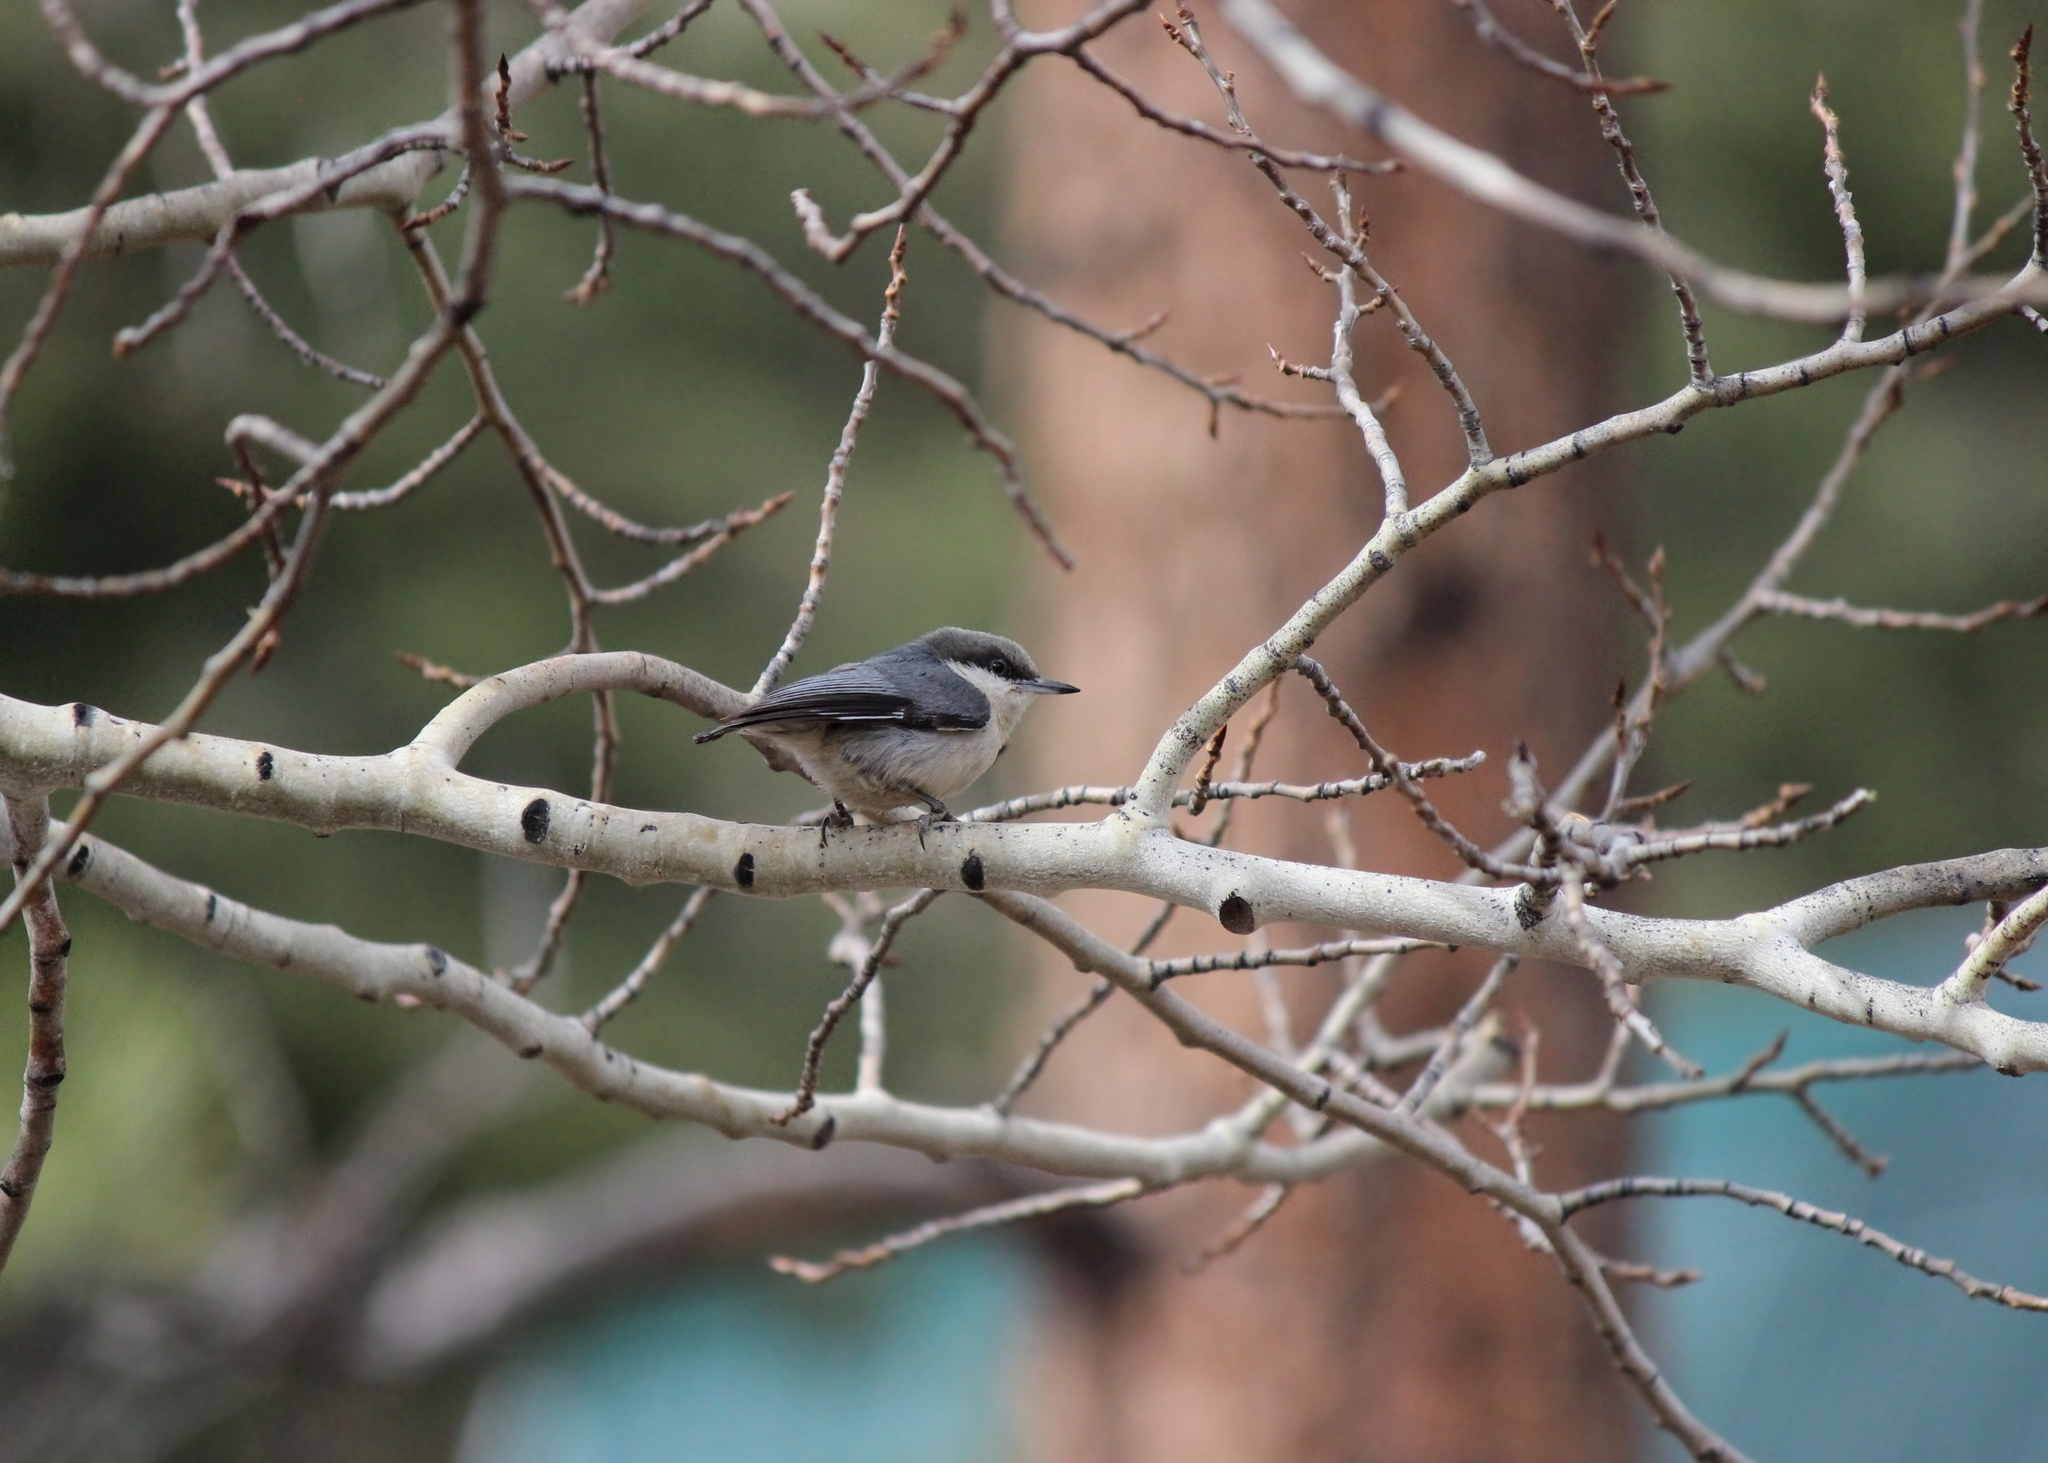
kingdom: Animalia
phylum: Chordata
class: Aves
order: Passeriformes
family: Sittidae
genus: Sitta
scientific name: Sitta pygmaea
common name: Pygmy nuthatch
